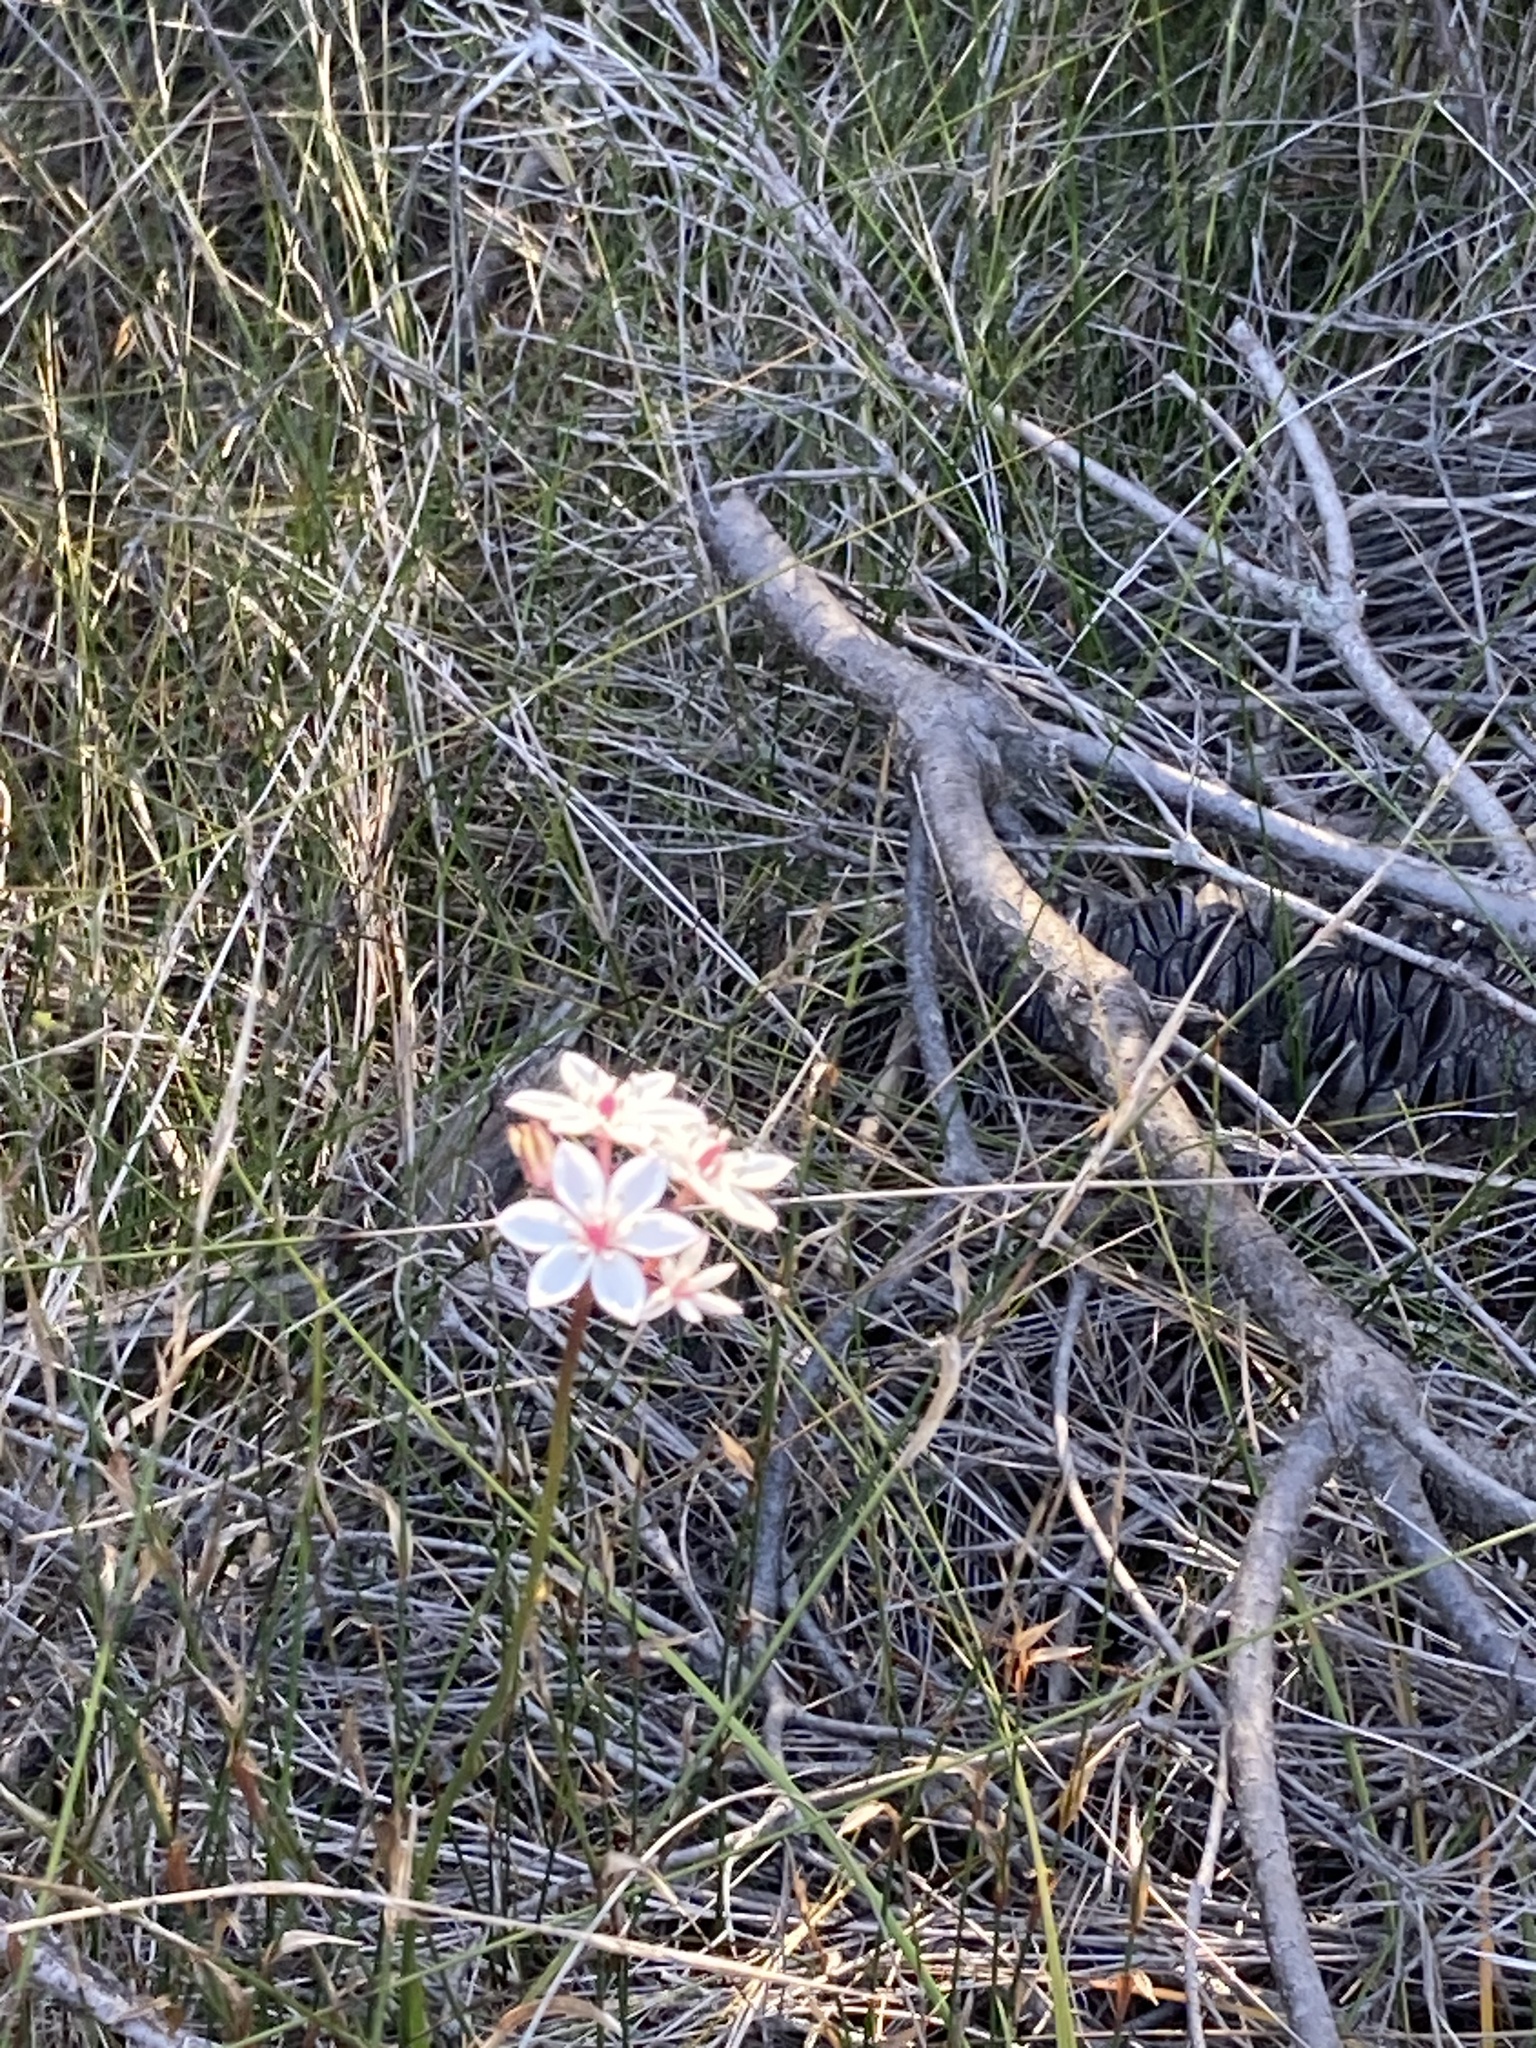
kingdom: Plantae
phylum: Tracheophyta
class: Liliopsida
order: Liliales
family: Colchicaceae
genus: Burchardia
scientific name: Burchardia umbellata
